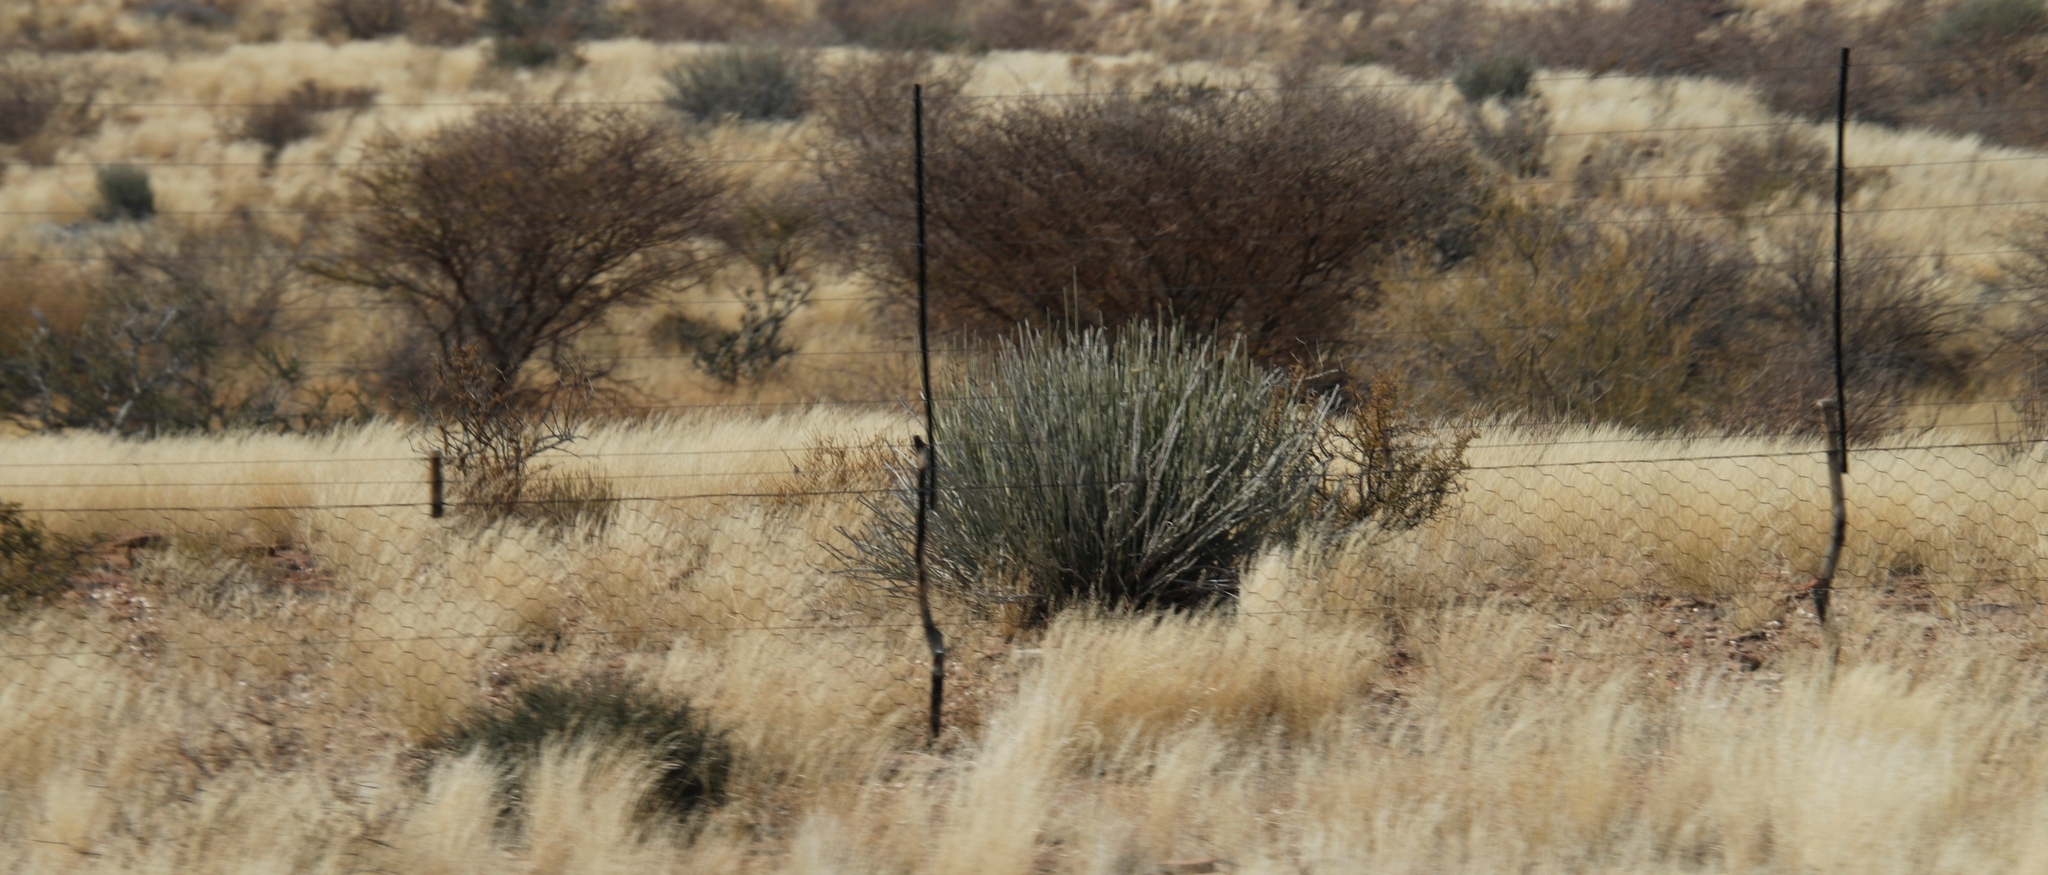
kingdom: Plantae
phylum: Tracheophyta
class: Magnoliopsida
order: Malpighiales
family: Euphorbiaceae
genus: Euphorbia
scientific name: Euphorbia gregaria
